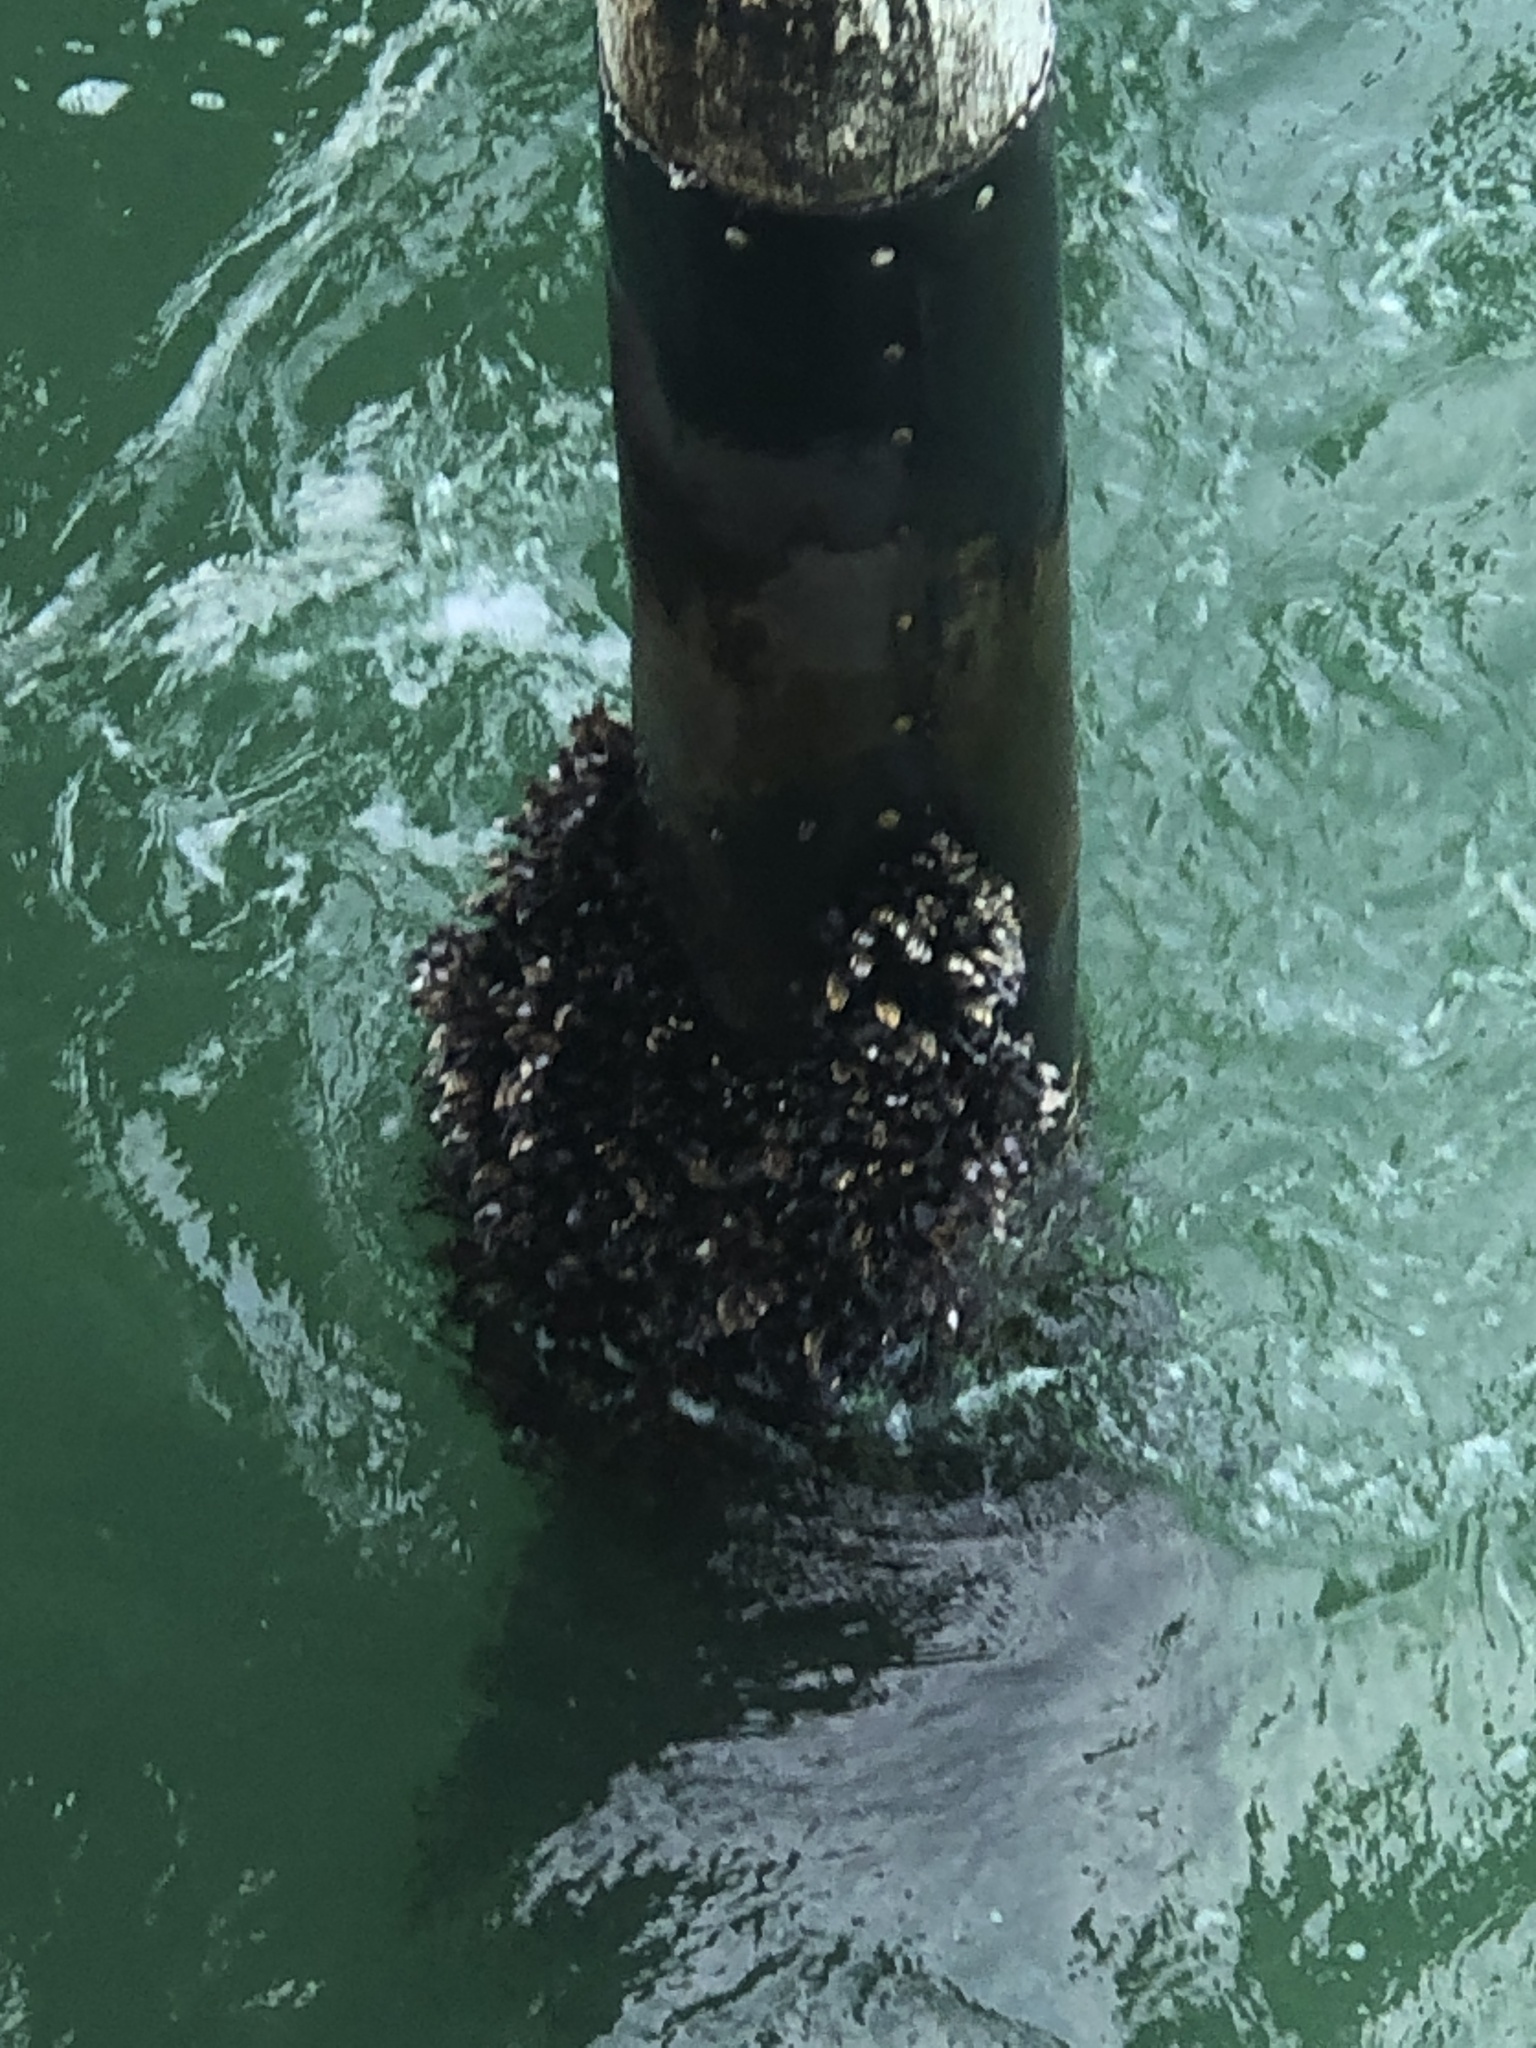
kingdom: Animalia
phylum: Mollusca
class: Bivalvia
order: Mytilida
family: Mytilidae
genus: Mytilus
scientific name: Mytilus galloprovincialis
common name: Mediterranean mussel
